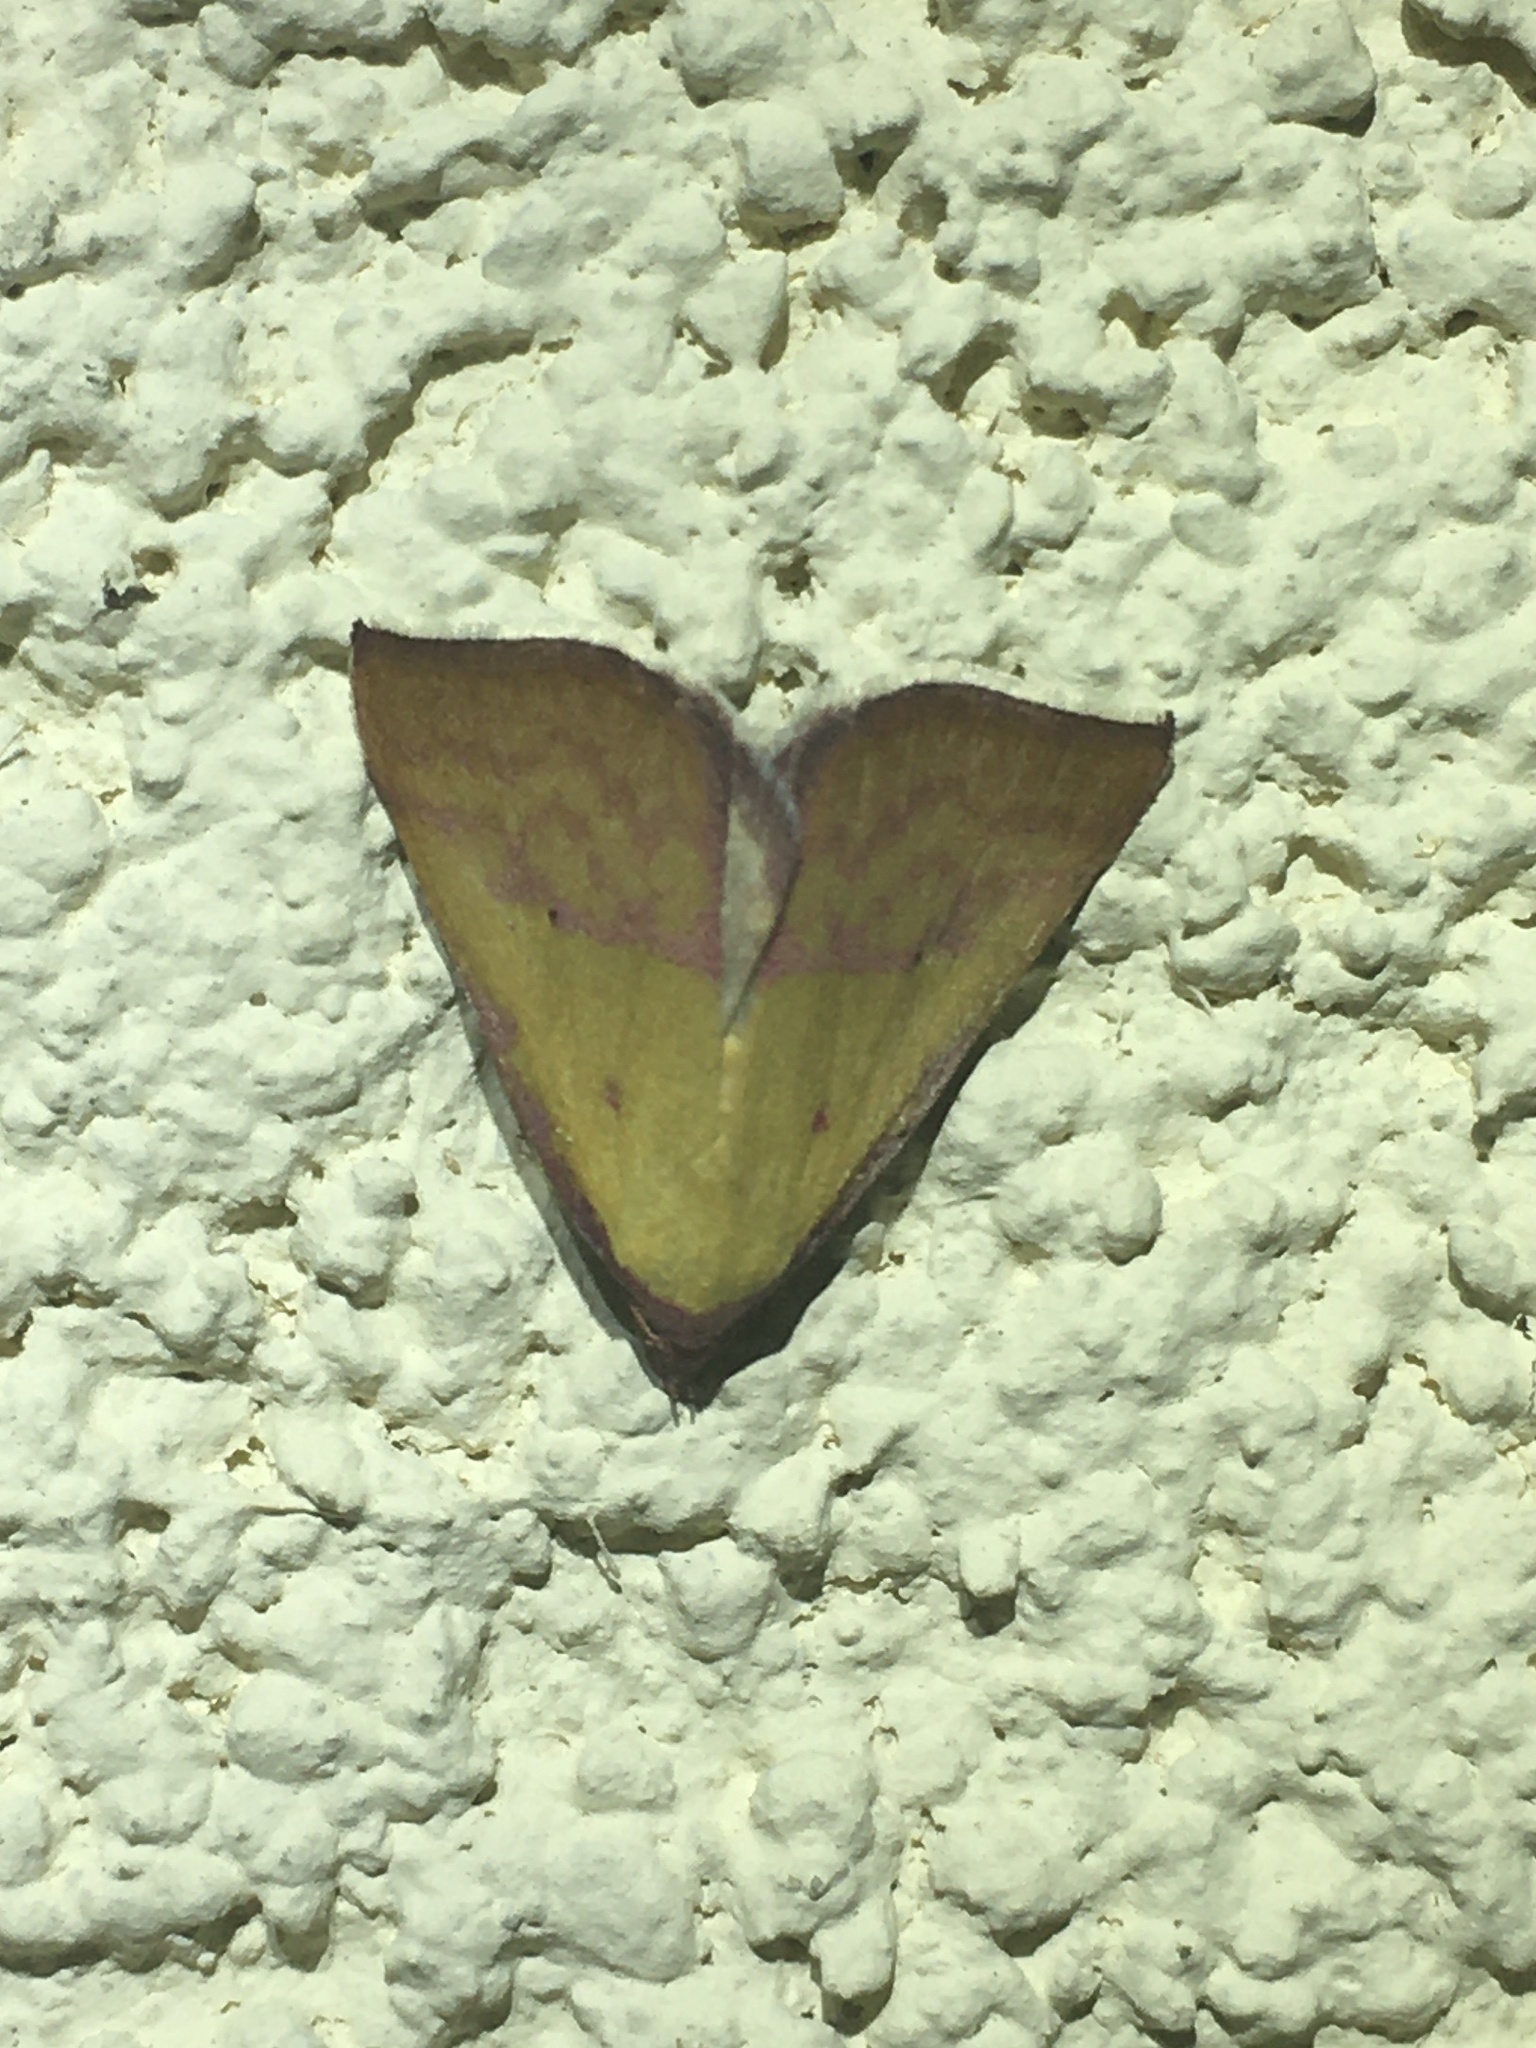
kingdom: Animalia
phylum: Arthropoda
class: Insecta
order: Lepidoptera
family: Erebidae
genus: Phytometra
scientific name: Phytometra rhodarialis
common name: Pink-bordered yellow
